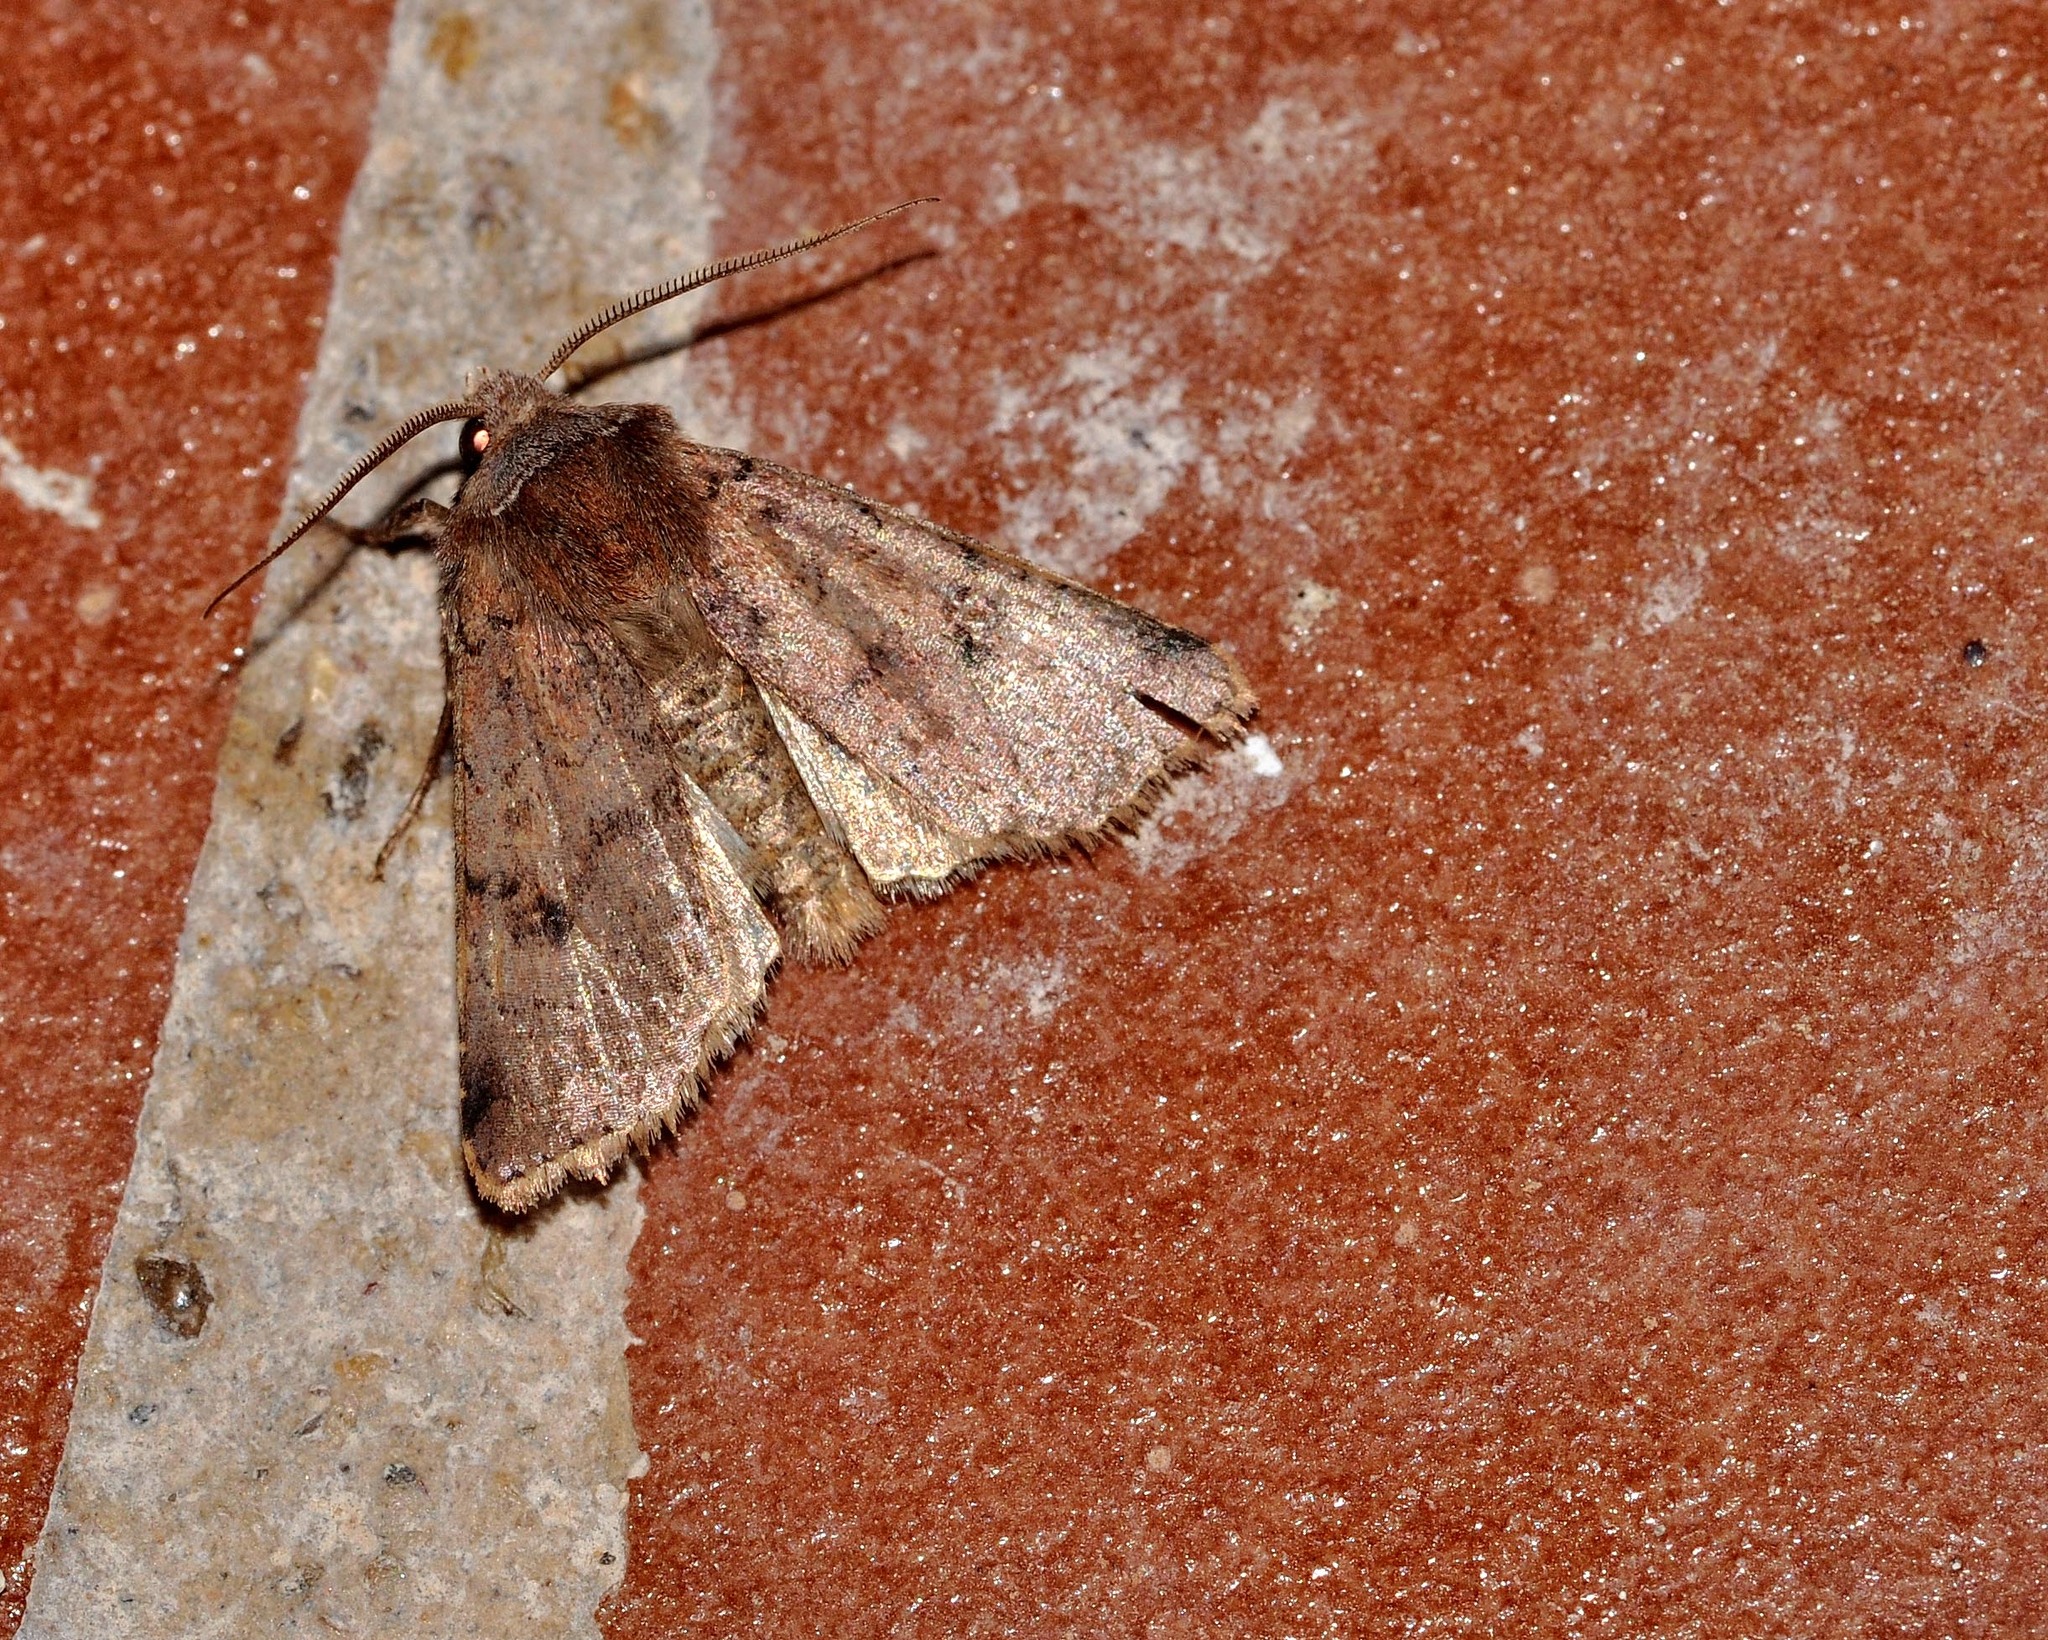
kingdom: Animalia
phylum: Arthropoda
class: Insecta
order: Lepidoptera
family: Noctuidae
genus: Cerastis
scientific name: Cerastis faceta
